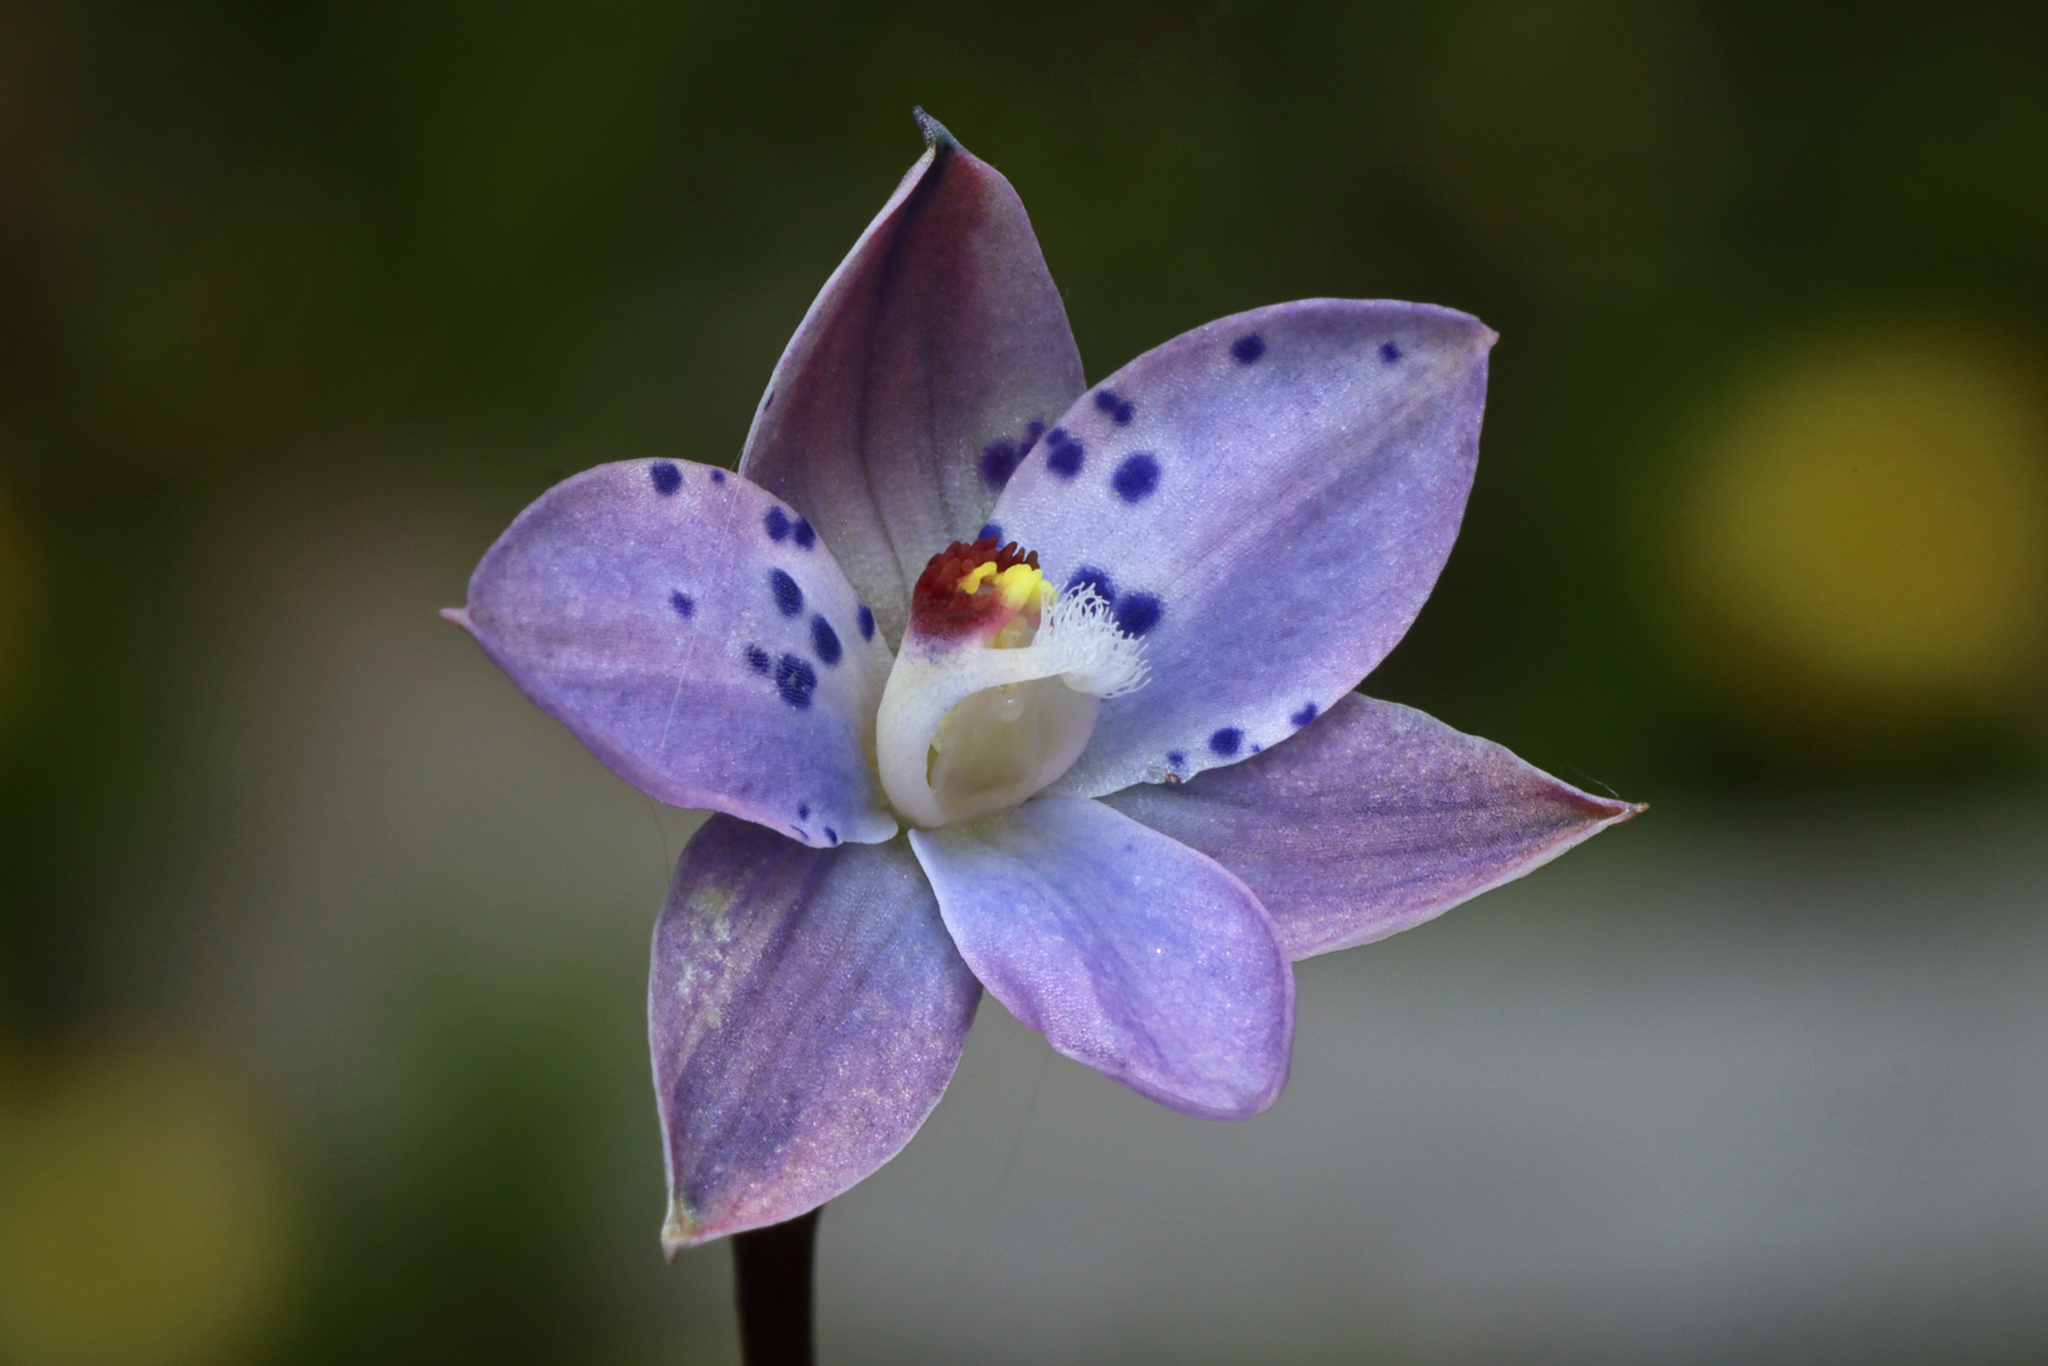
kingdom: Plantae
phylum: Tracheophyta
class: Liliopsida
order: Asparagales
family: Orchidaceae
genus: Thelymitra
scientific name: Thelymitra juncifolia
